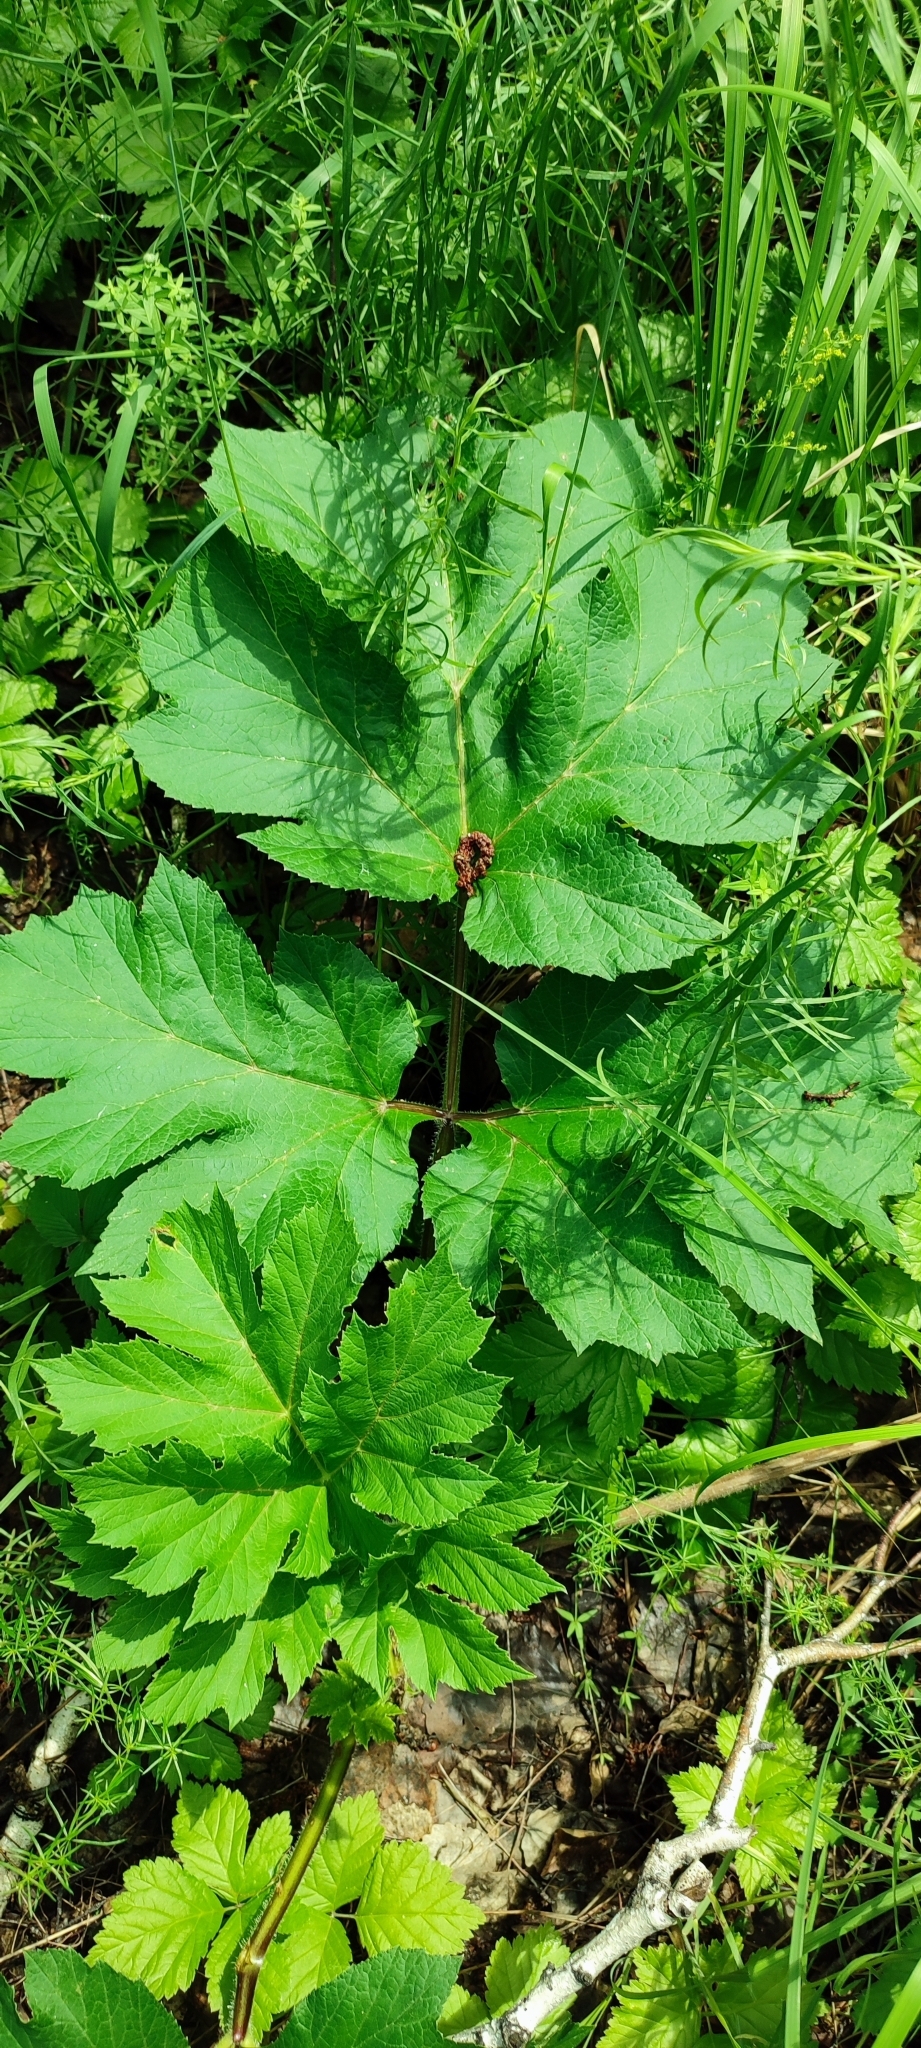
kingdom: Plantae
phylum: Tracheophyta
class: Magnoliopsida
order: Apiales
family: Apiaceae
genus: Heracleum
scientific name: Heracleum sphondylium
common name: Hogweed
